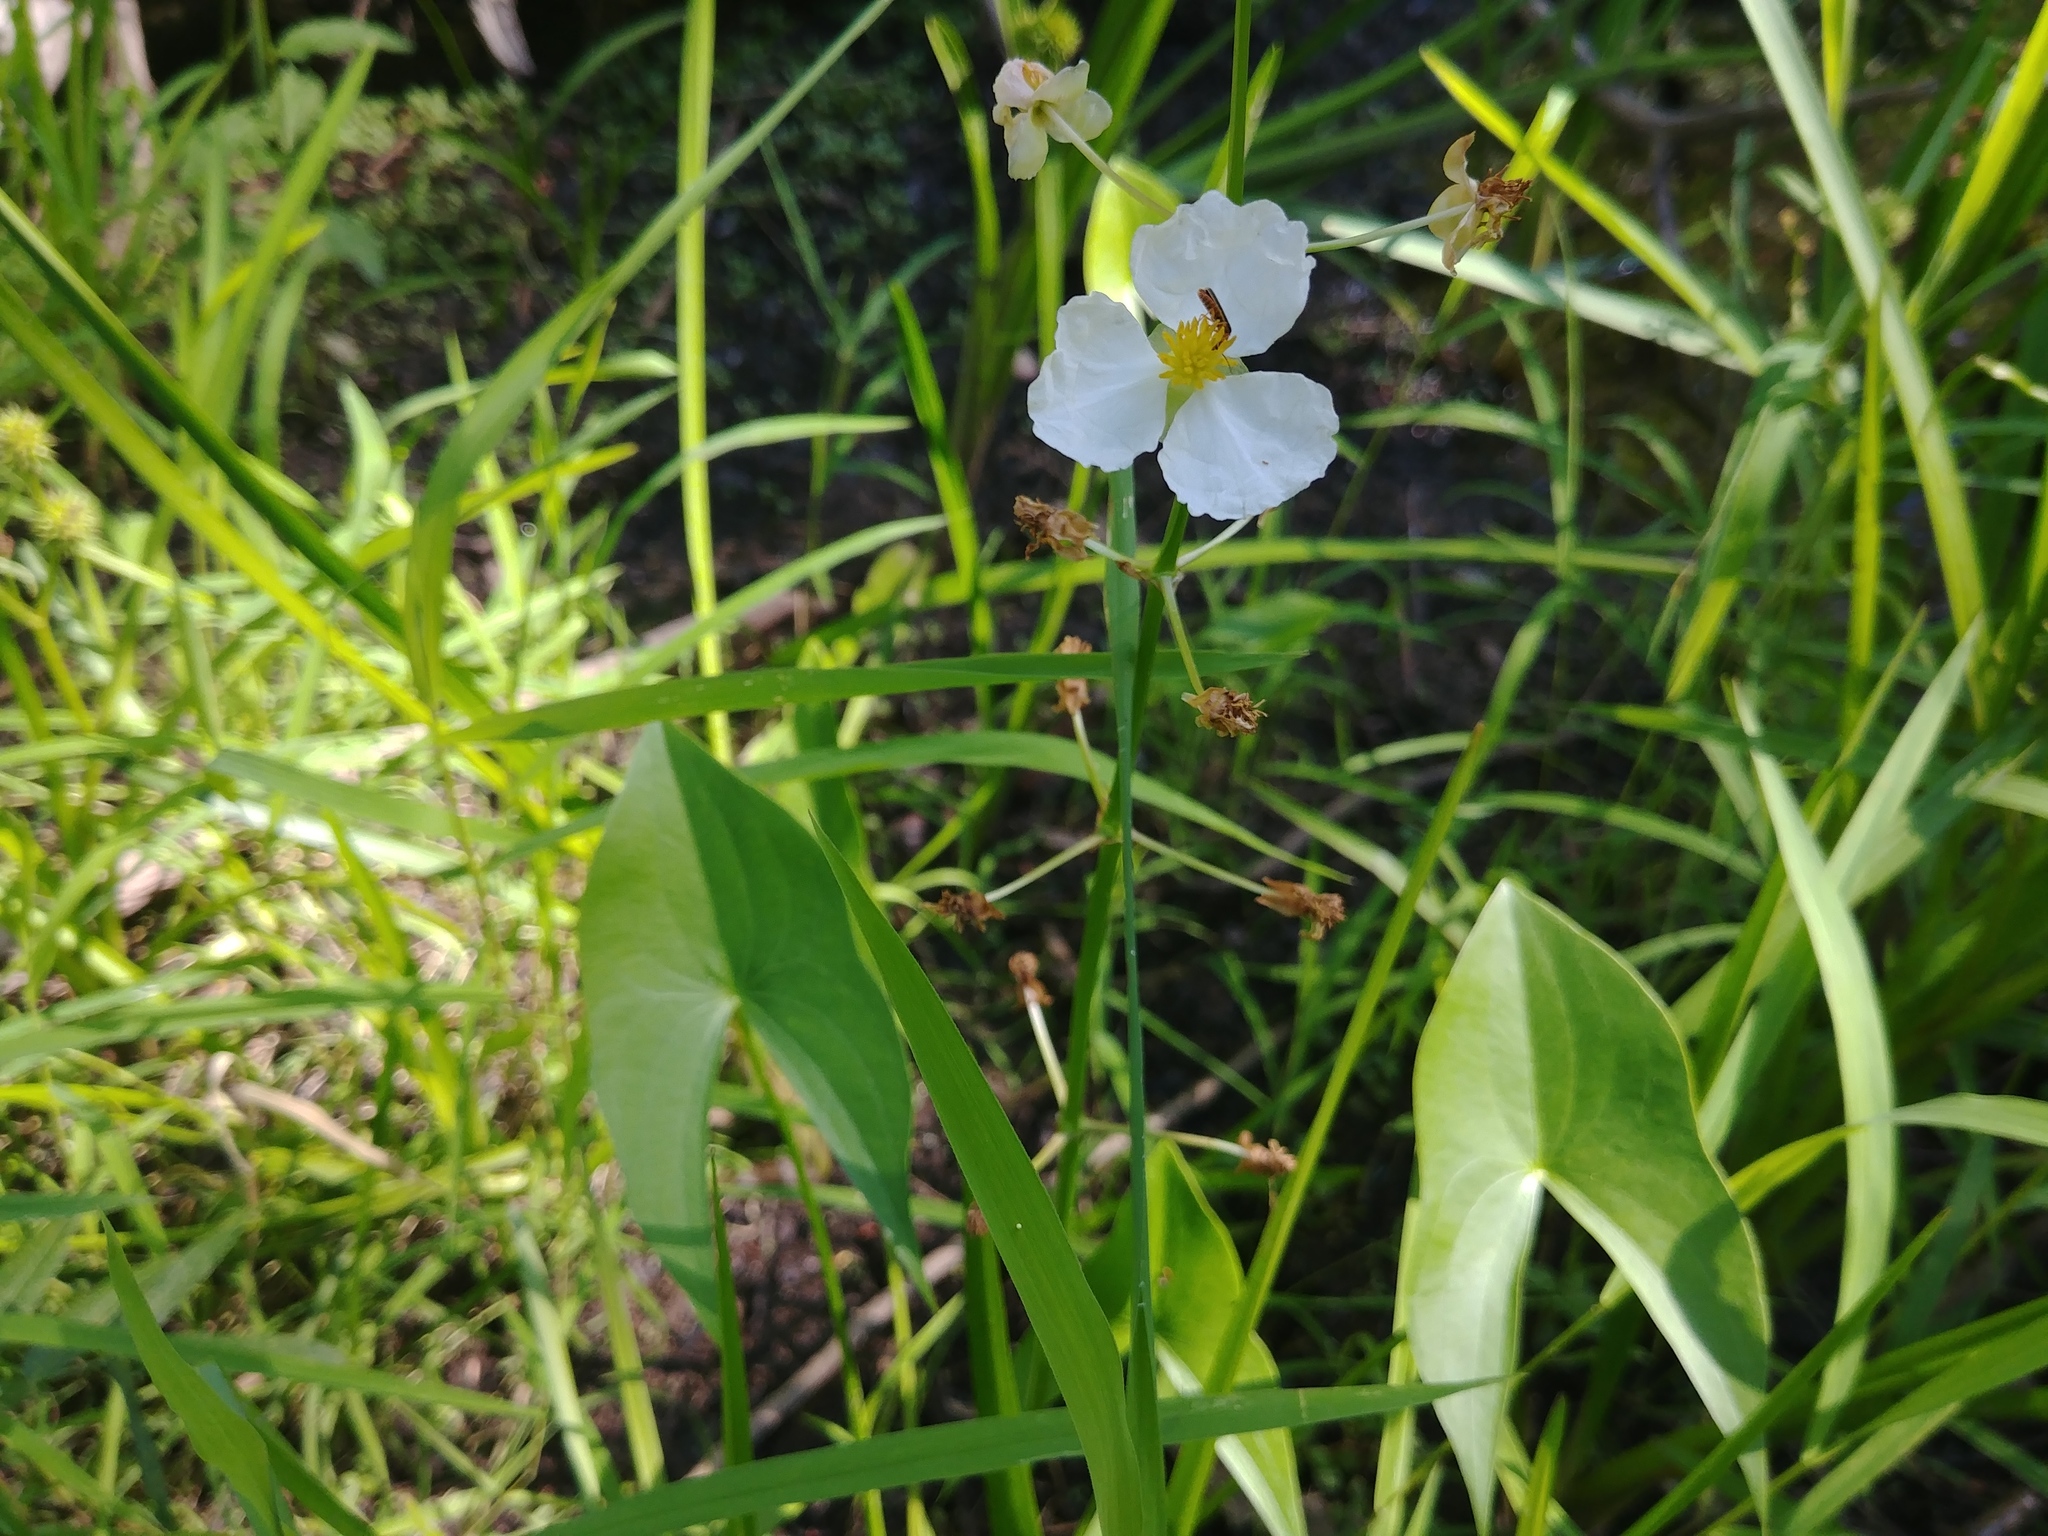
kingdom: Plantae
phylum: Tracheophyta
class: Liliopsida
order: Alismatales
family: Alismataceae
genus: Sagittaria
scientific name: Sagittaria latifolia
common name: Duck-potato
